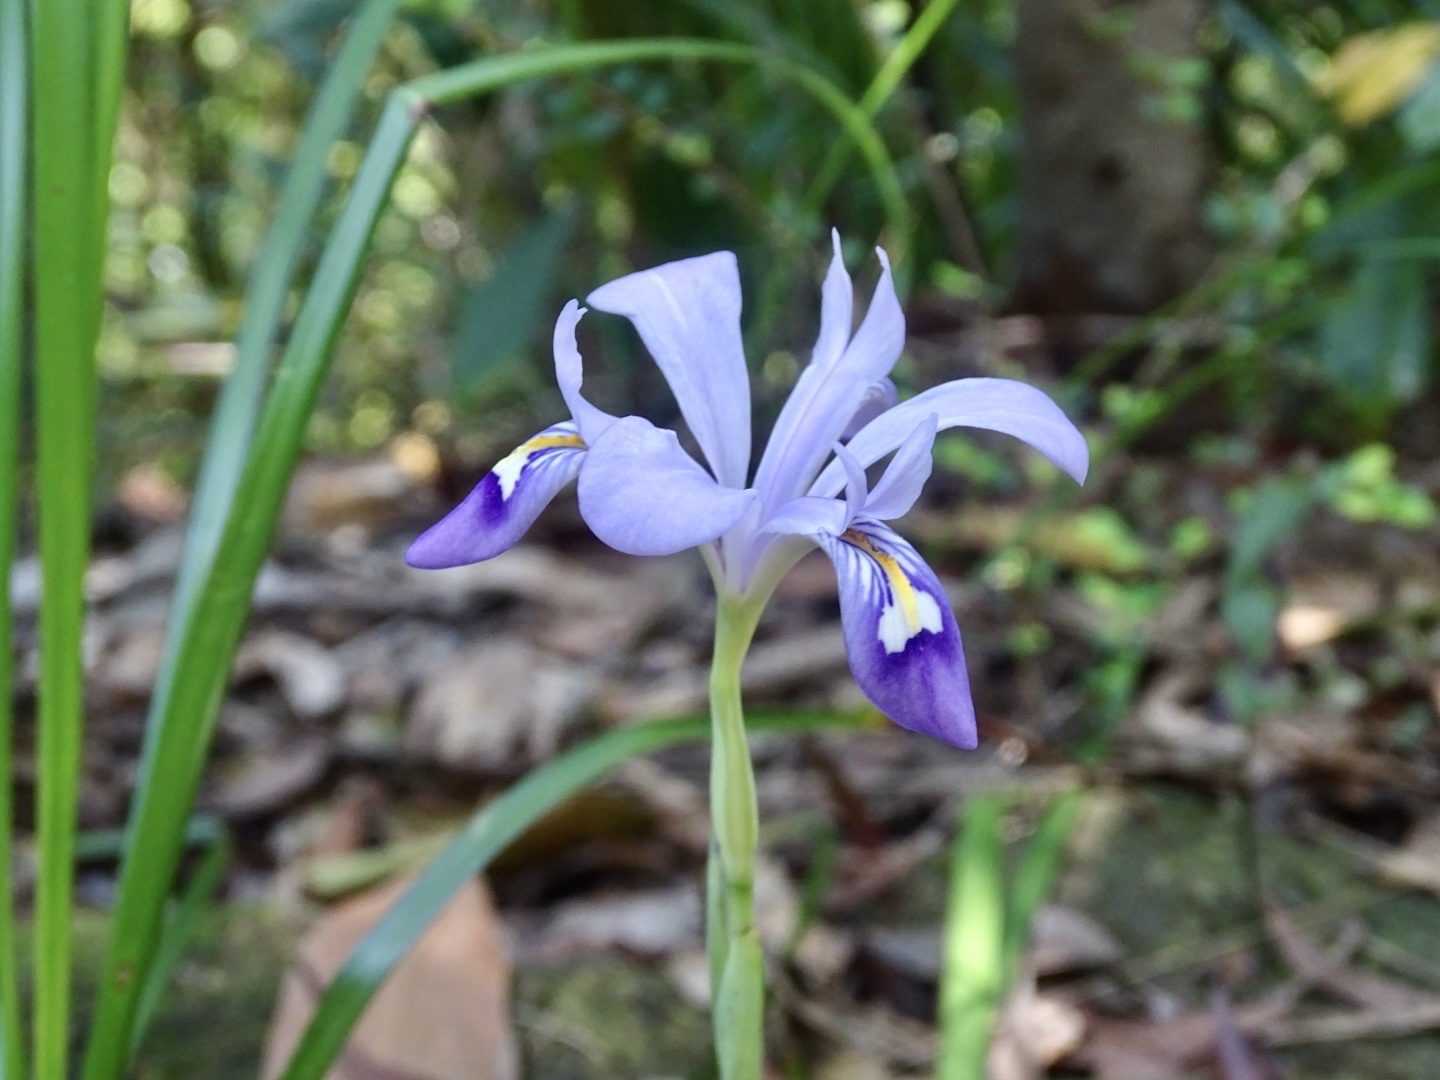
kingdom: Plantae
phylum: Tracheophyta
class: Liliopsida
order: Asparagales
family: Iridaceae
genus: Iris
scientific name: Iris speculatrix
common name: Small-flower iris
